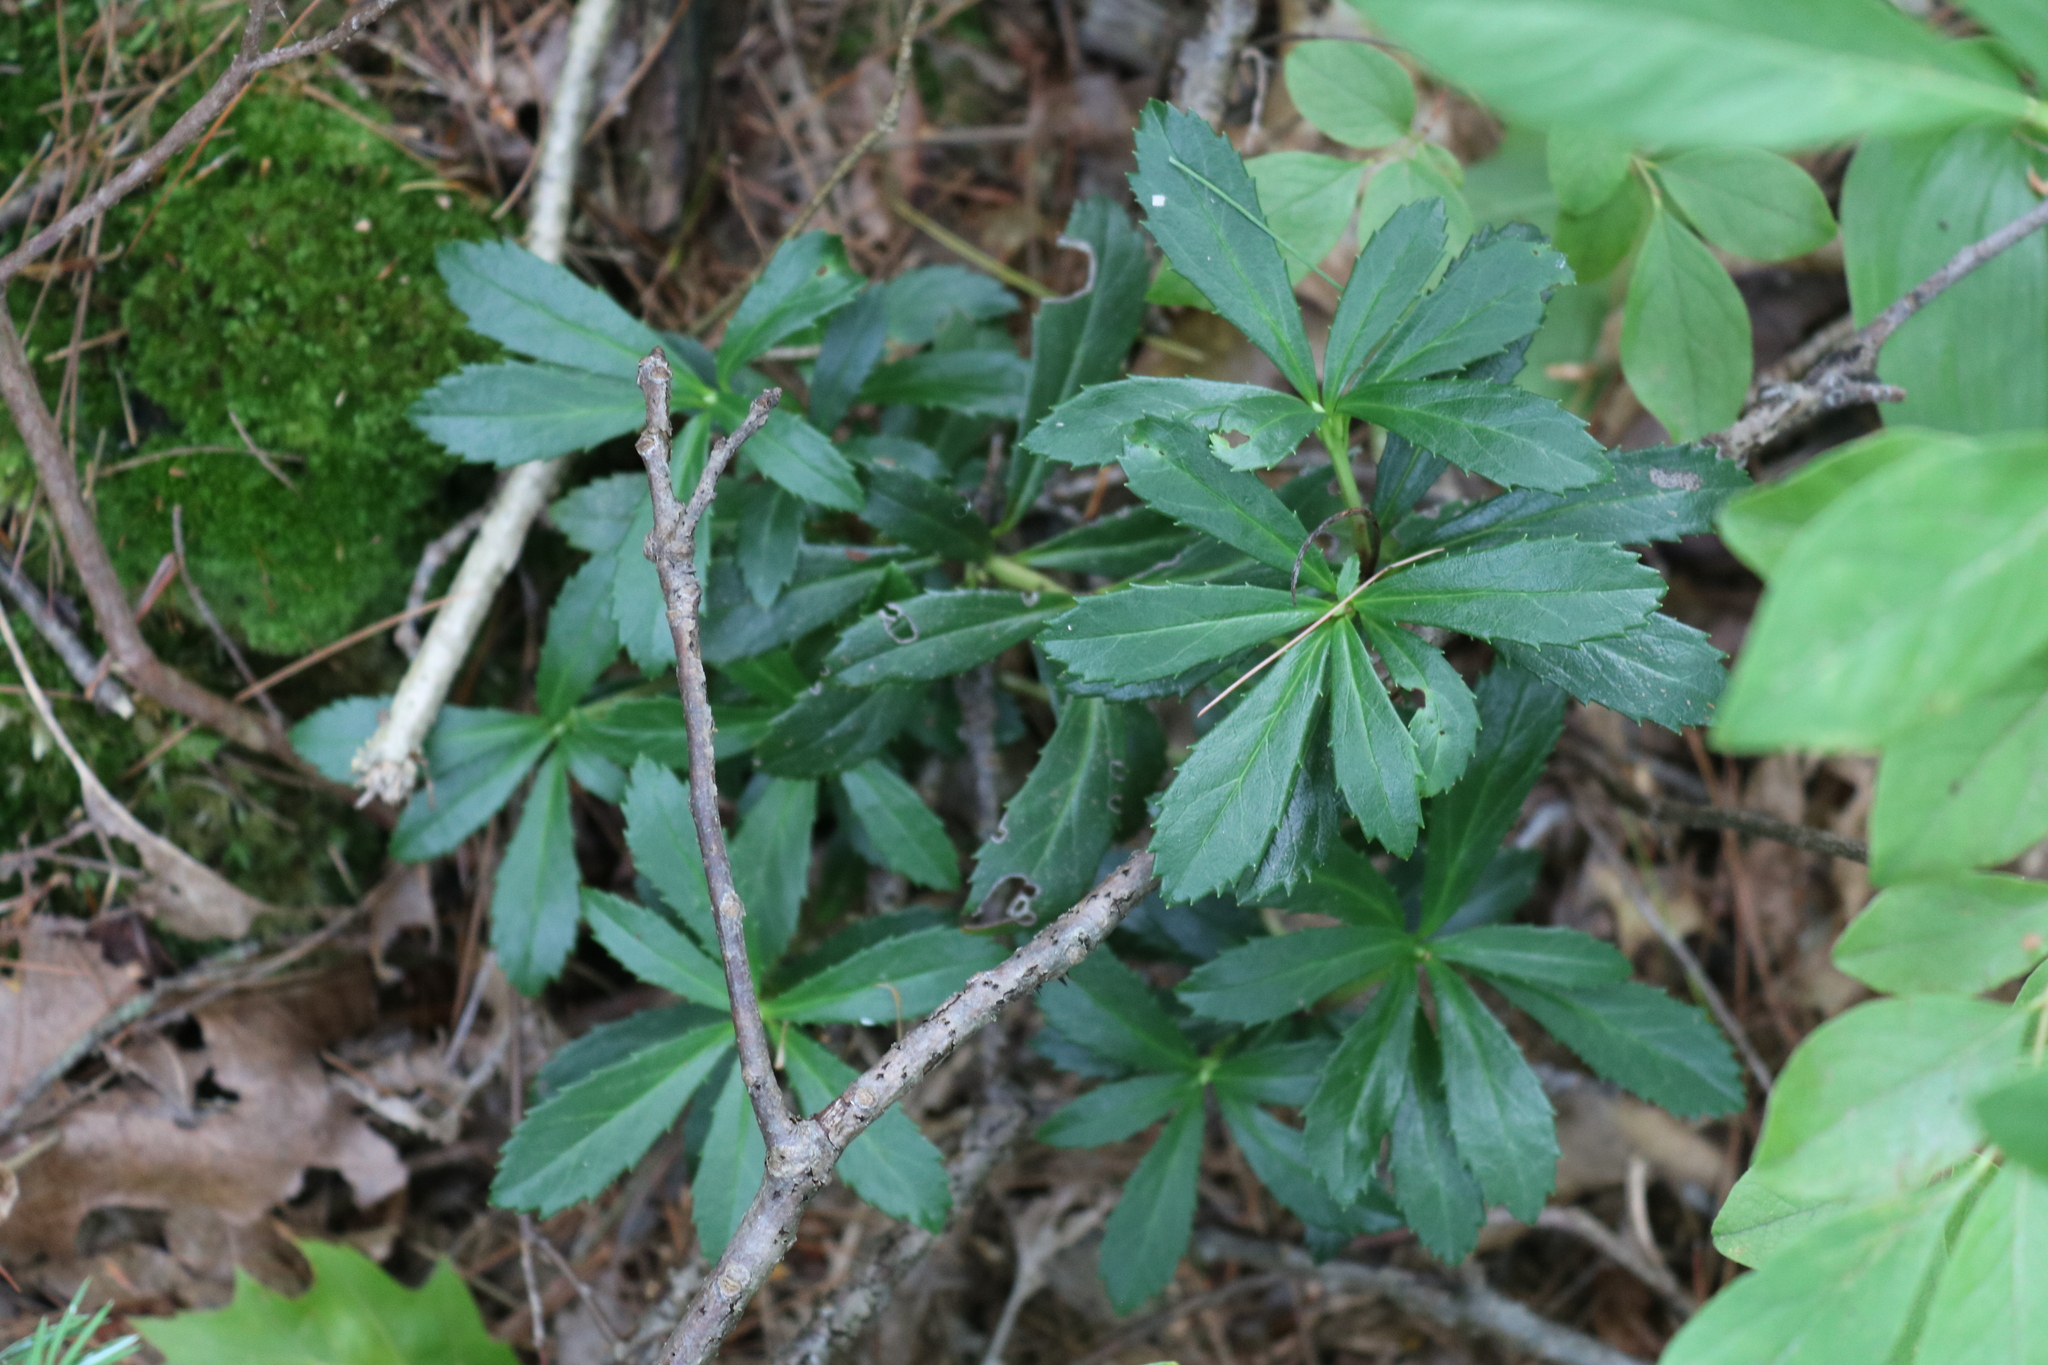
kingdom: Plantae
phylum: Tracheophyta
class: Magnoliopsida
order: Ericales
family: Ericaceae
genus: Chimaphila
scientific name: Chimaphila umbellata
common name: Pipsissewa
